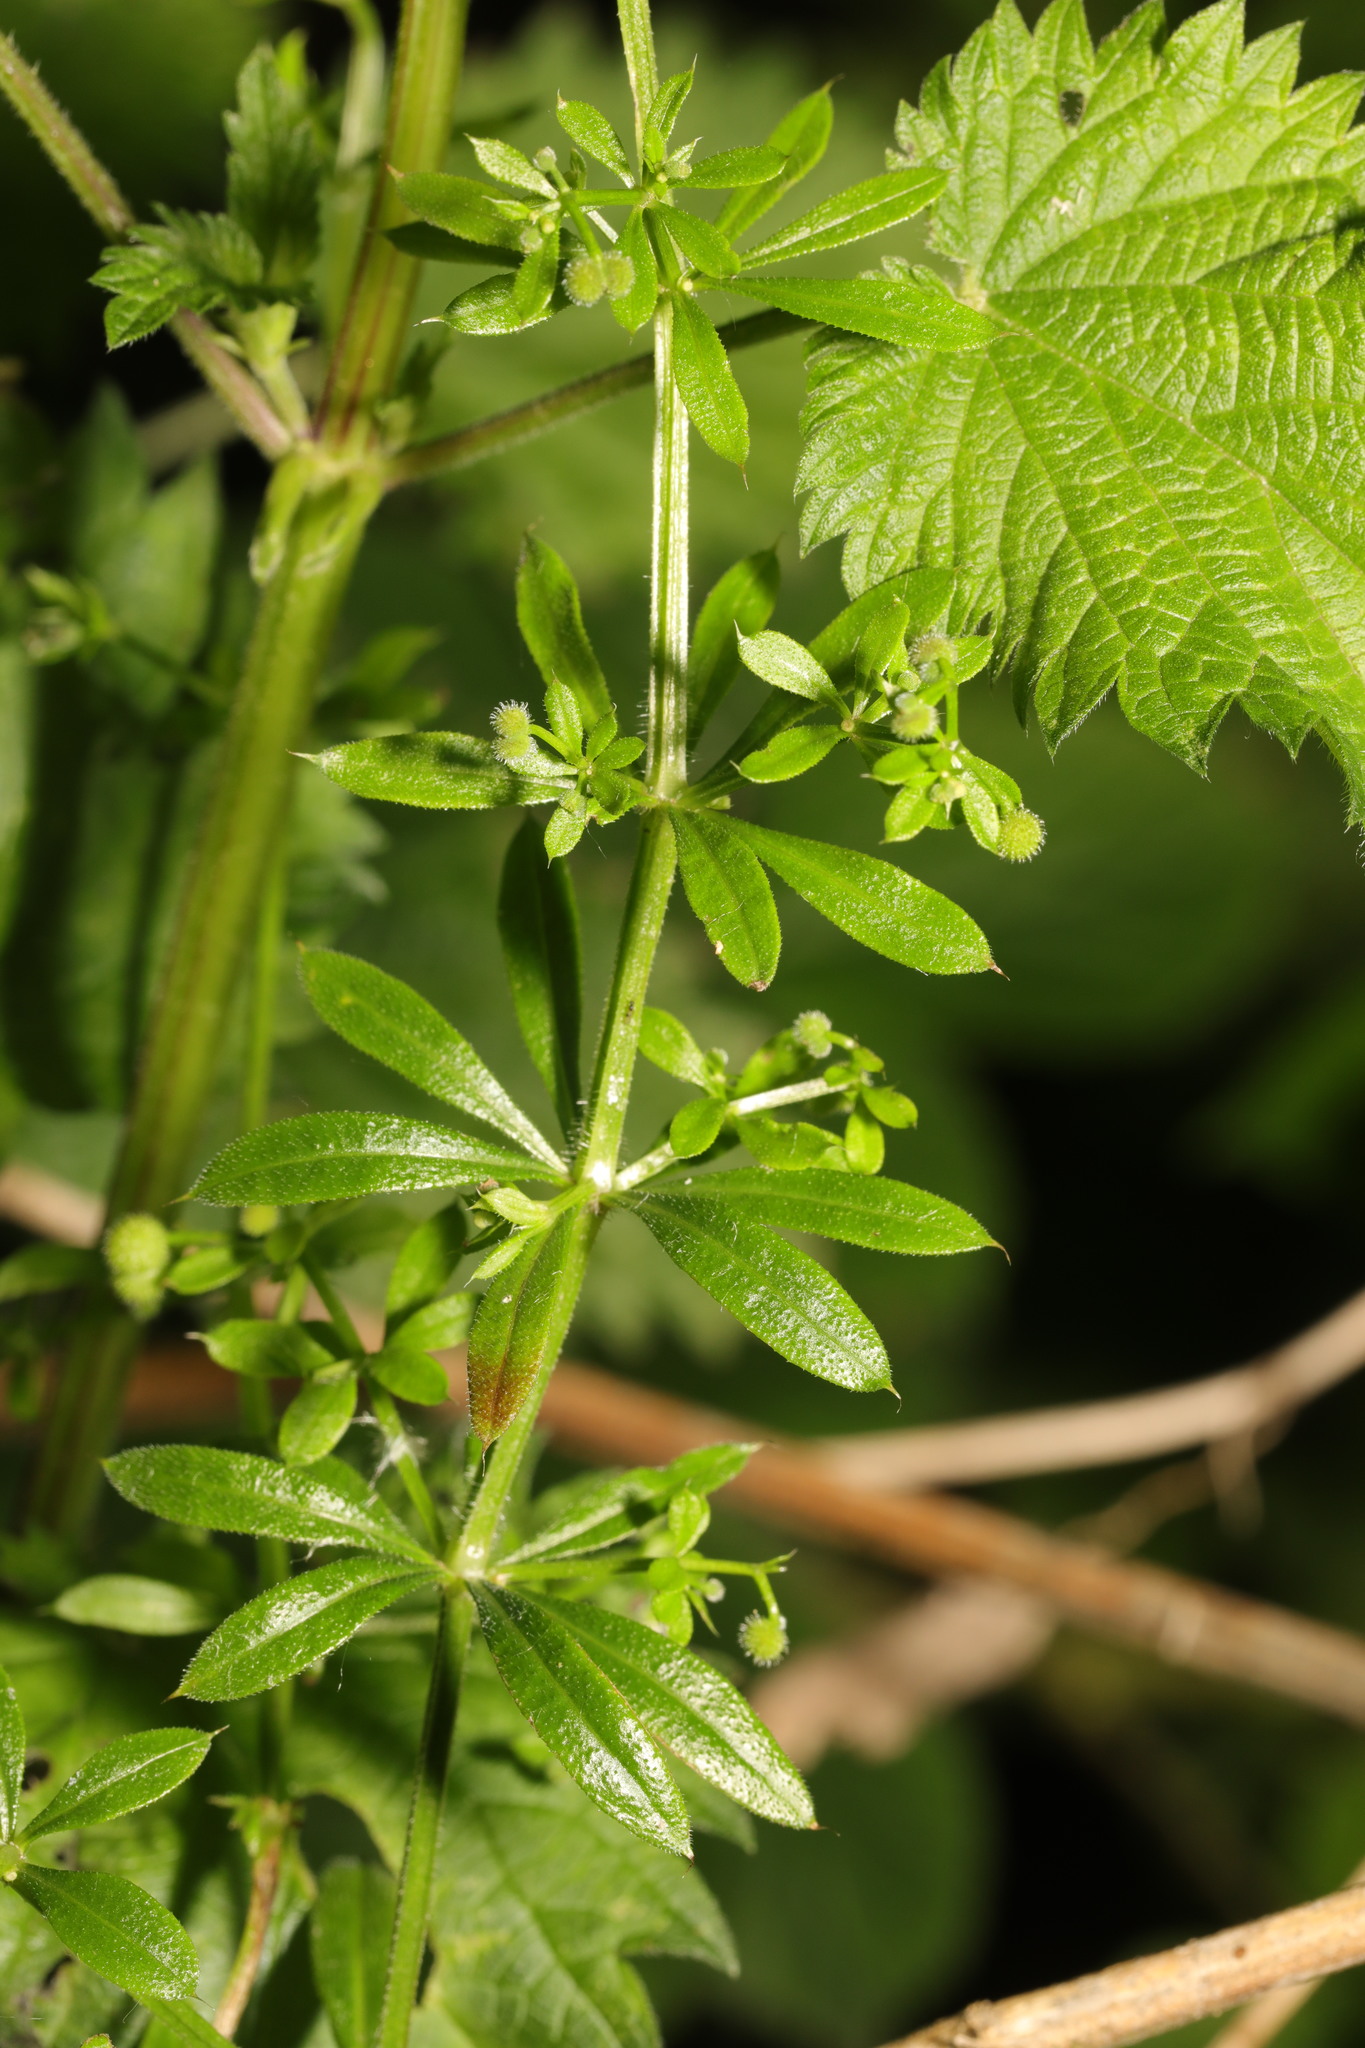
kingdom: Plantae
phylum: Tracheophyta
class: Magnoliopsida
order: Gentianales
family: Rubiaceae
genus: Galium
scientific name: Galium aparine
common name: Cleavers
